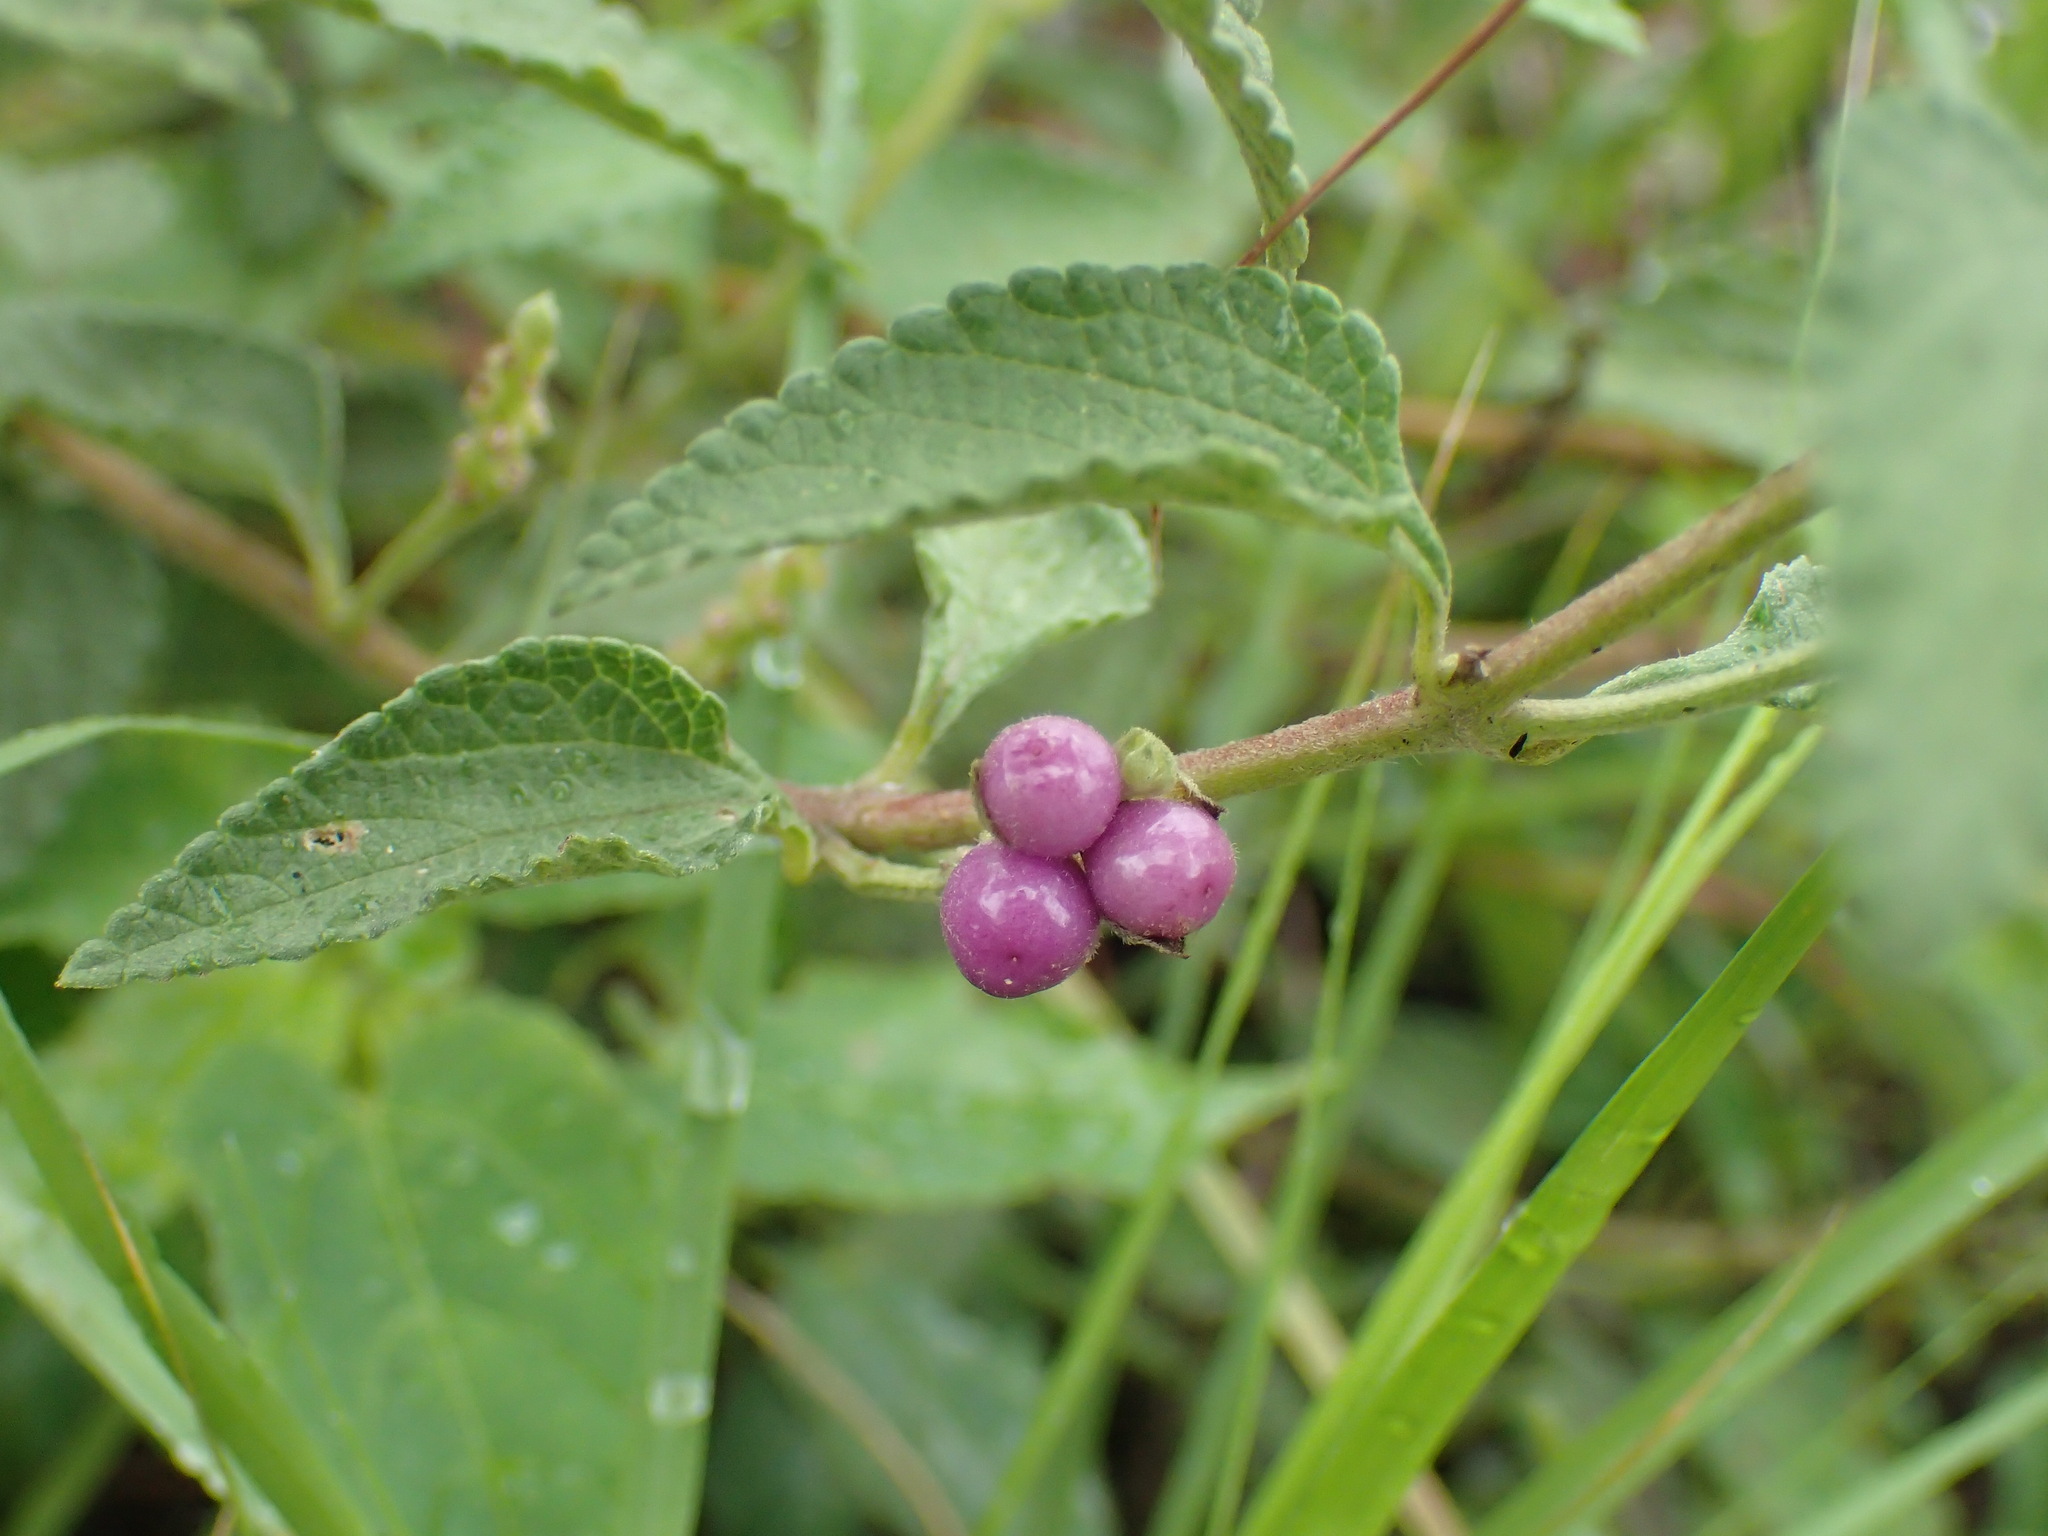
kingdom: Plantae
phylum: Tracheophyta
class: Magnoliopsida
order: Lamiales
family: Verbenaceae
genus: Lantana
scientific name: Lantana rugosa
